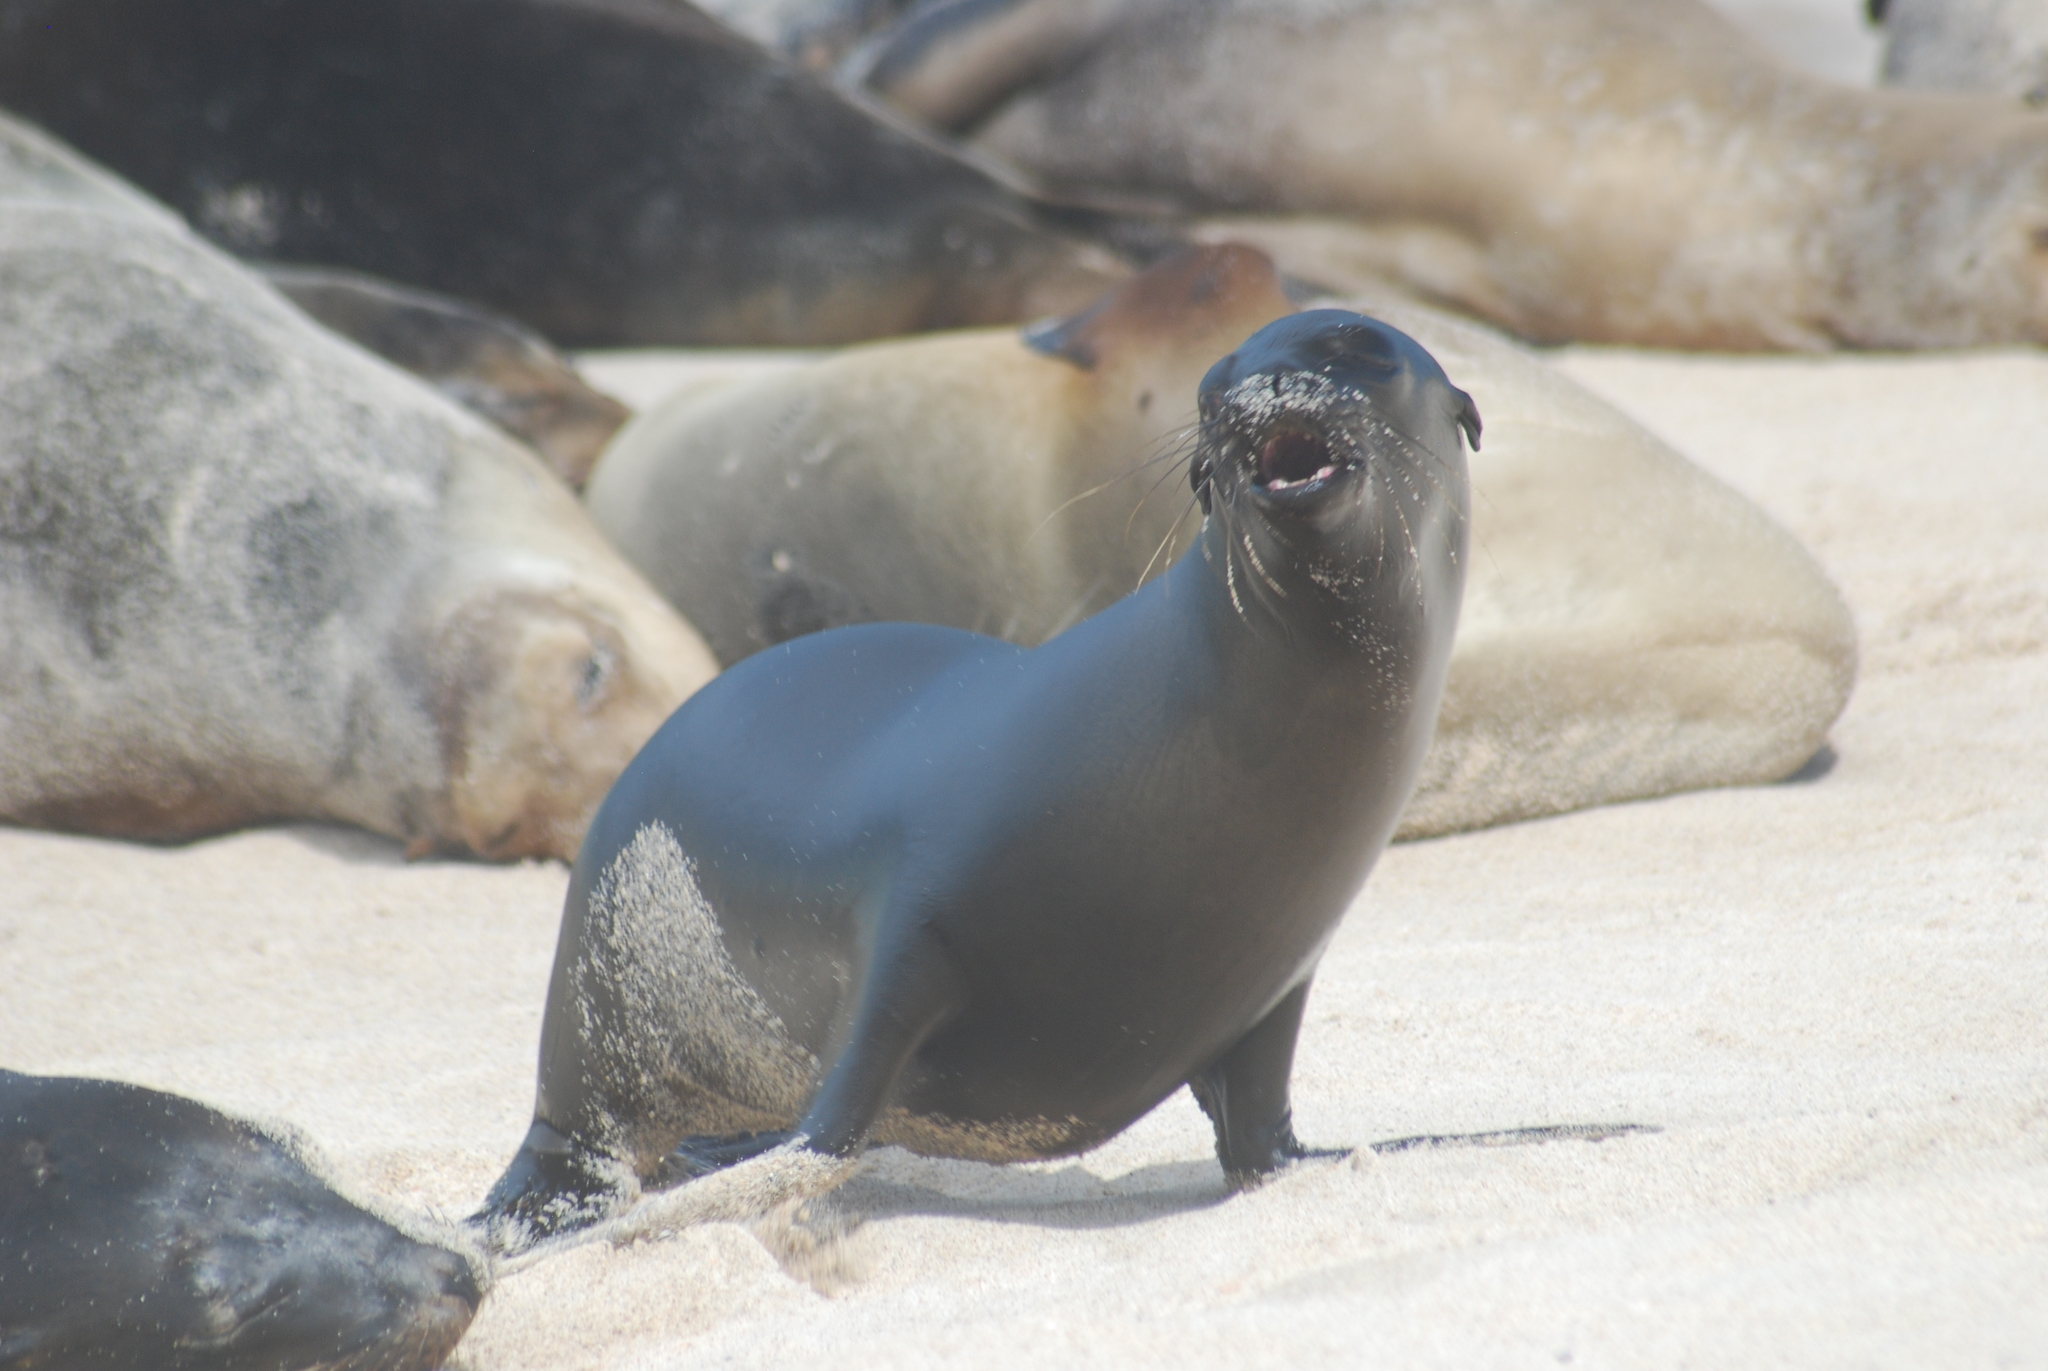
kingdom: Animalia
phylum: Chordata
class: Mammalia
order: Carnivora
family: Otariidae
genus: Zalophus
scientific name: Zalophus wollebaeki
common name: Galapagos sea lion
